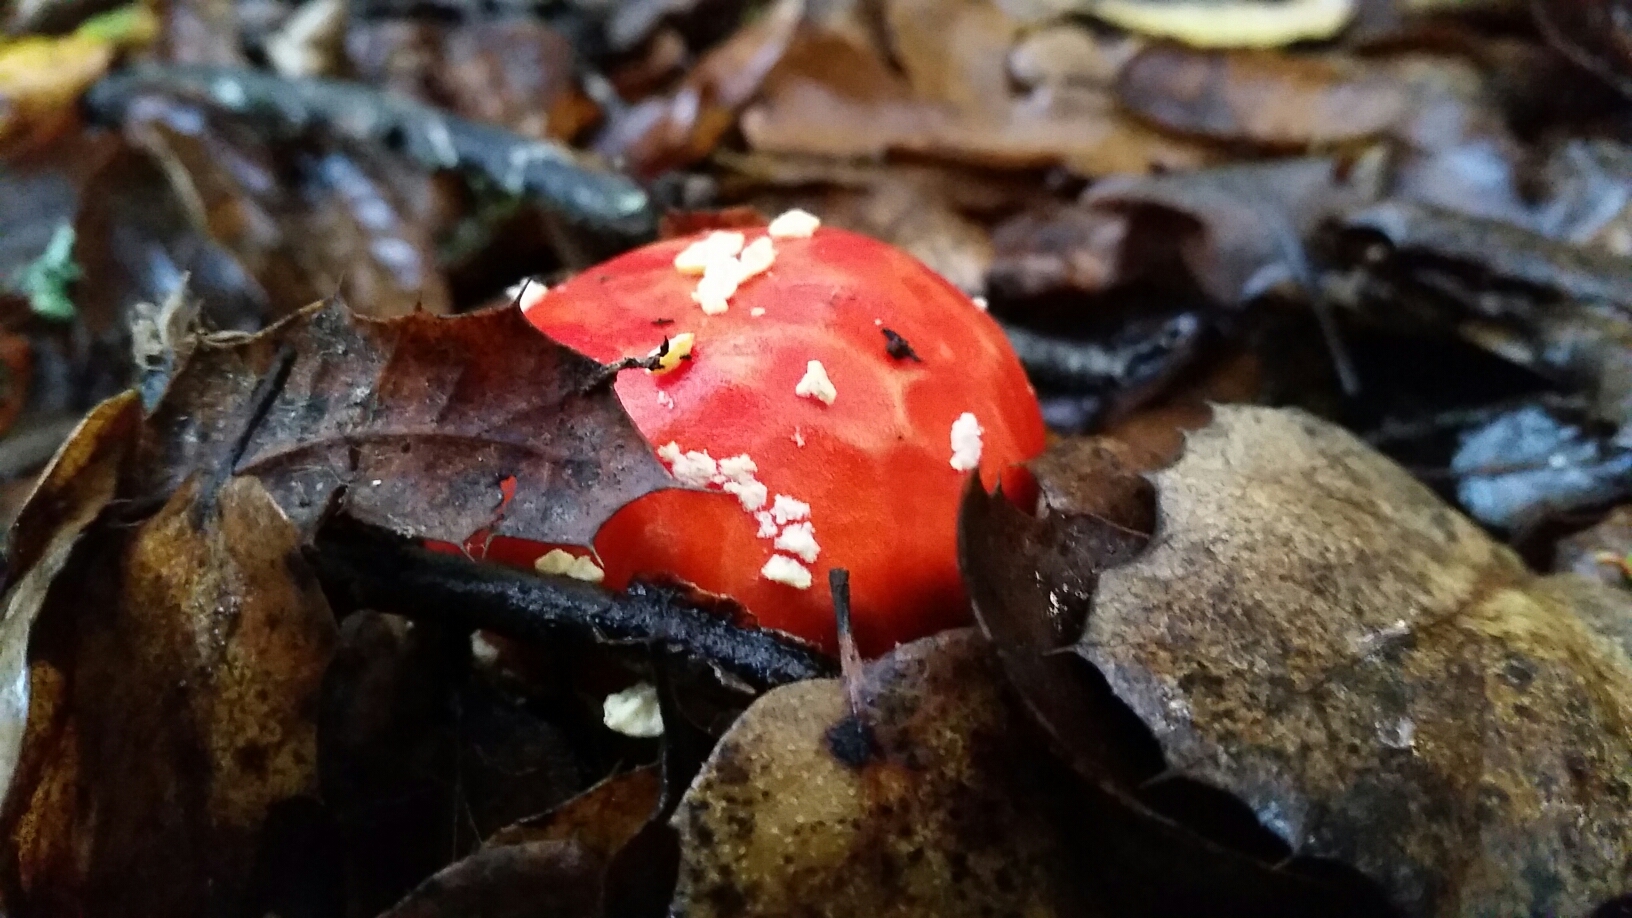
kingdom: Fungi
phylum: Basidiomycota
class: Agaricomycetes
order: Agaricales
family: Amanitaceae
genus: Amanita
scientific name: Amanita muscaria
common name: Fly agaric
